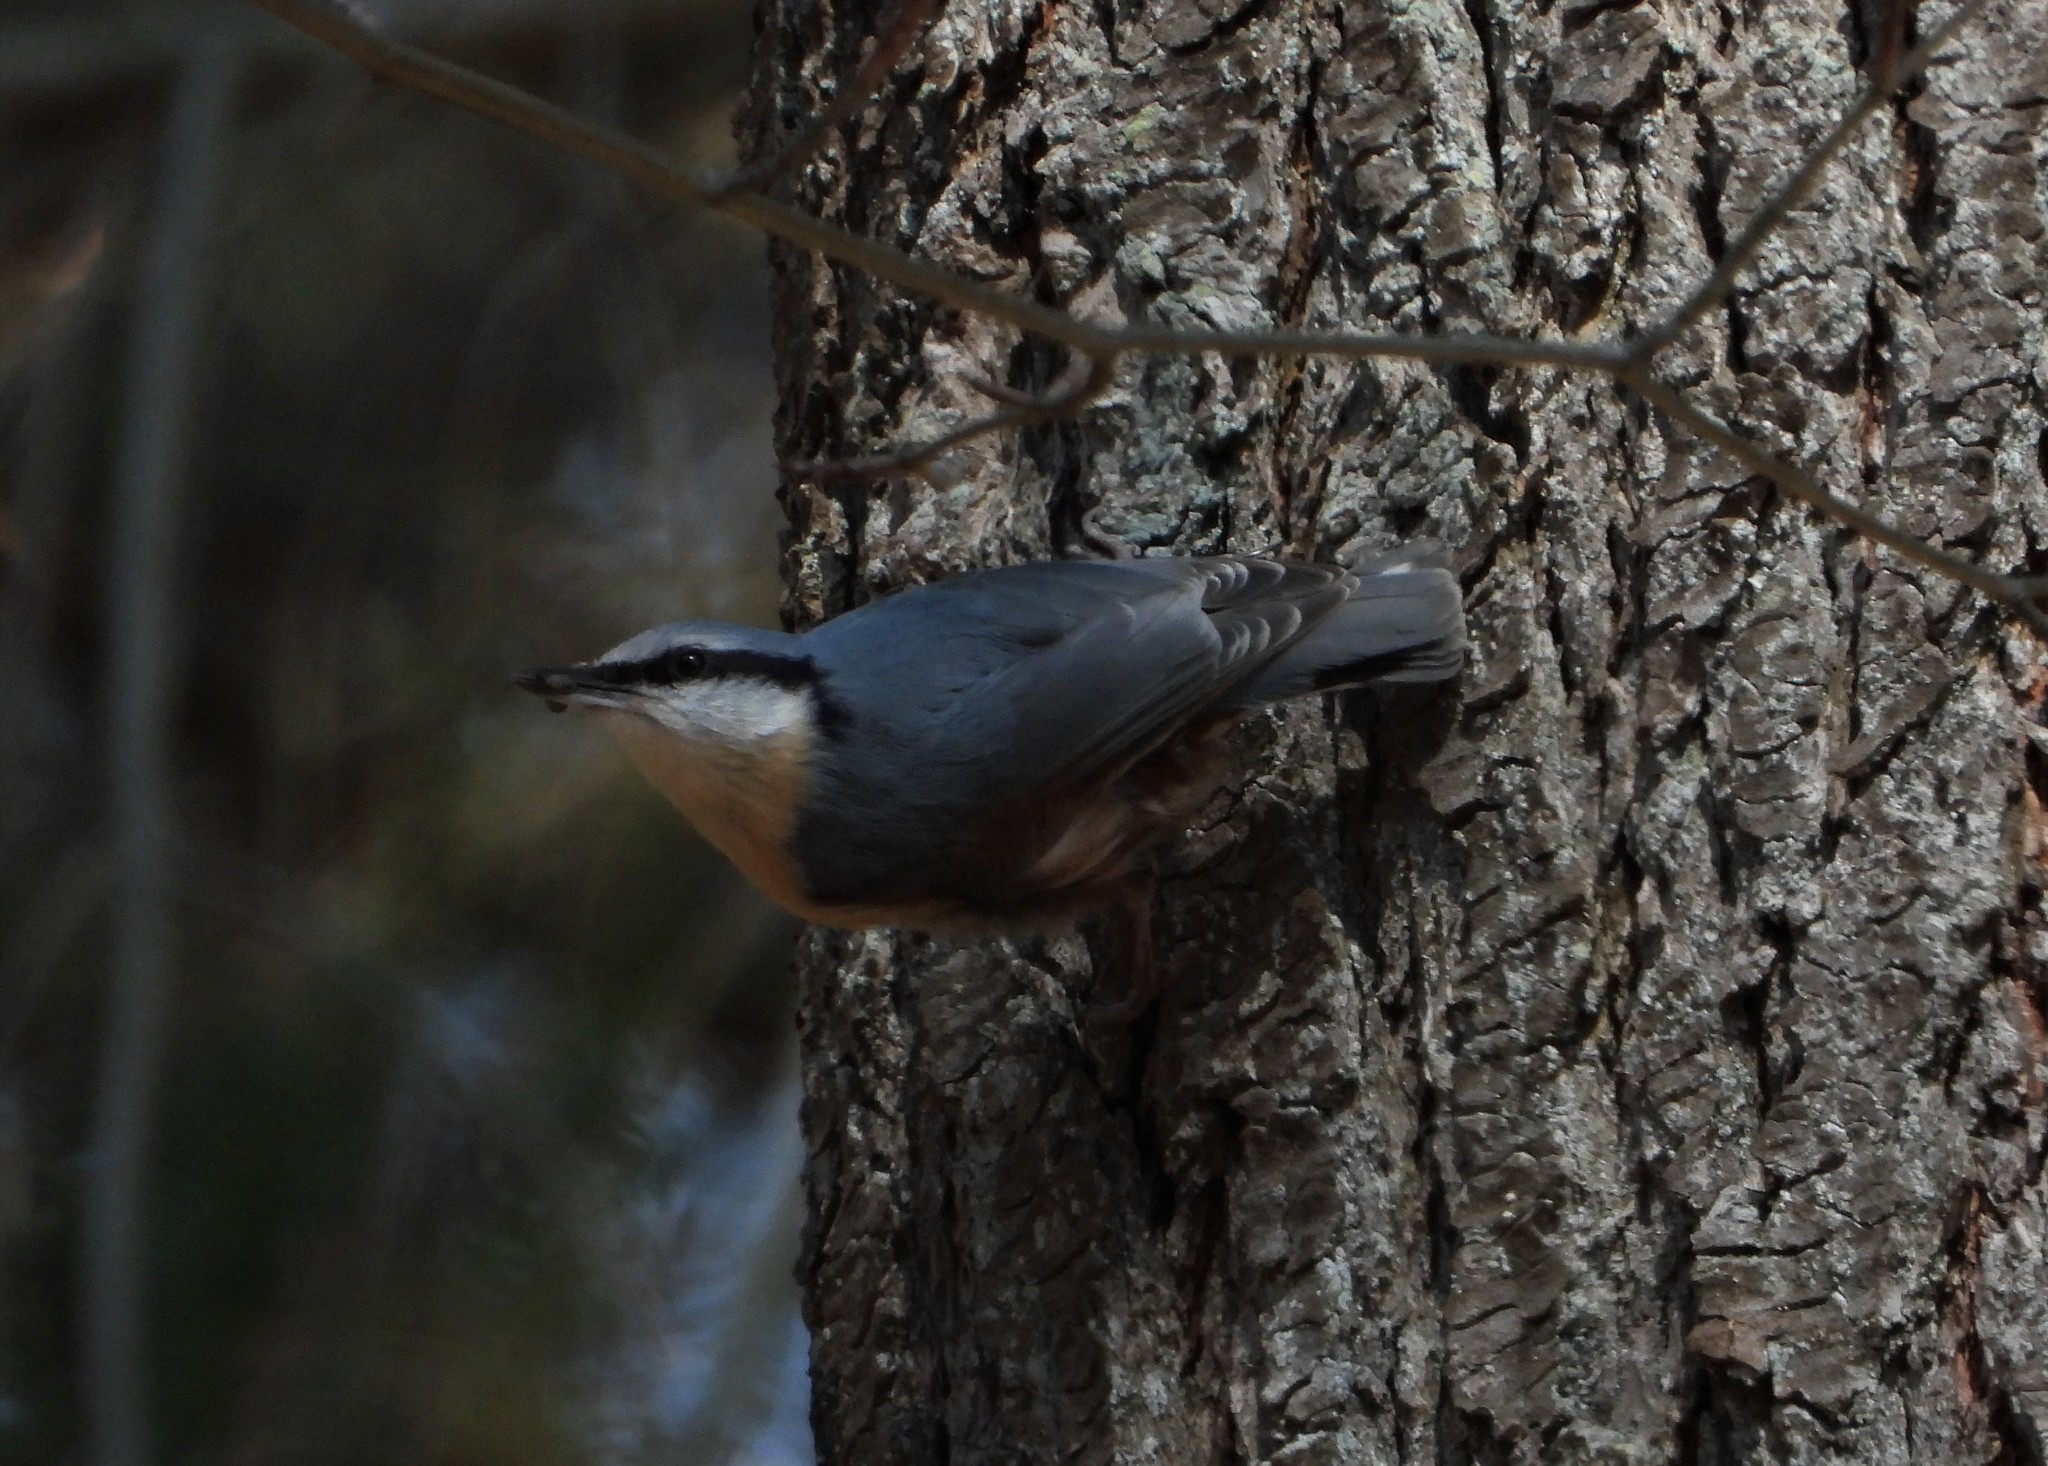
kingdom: Animalia
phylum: Chordata
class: Aves
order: Passeriformes
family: Sittidae
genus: Sitta
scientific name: Sitta europaea
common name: Eurasian nuthatch
